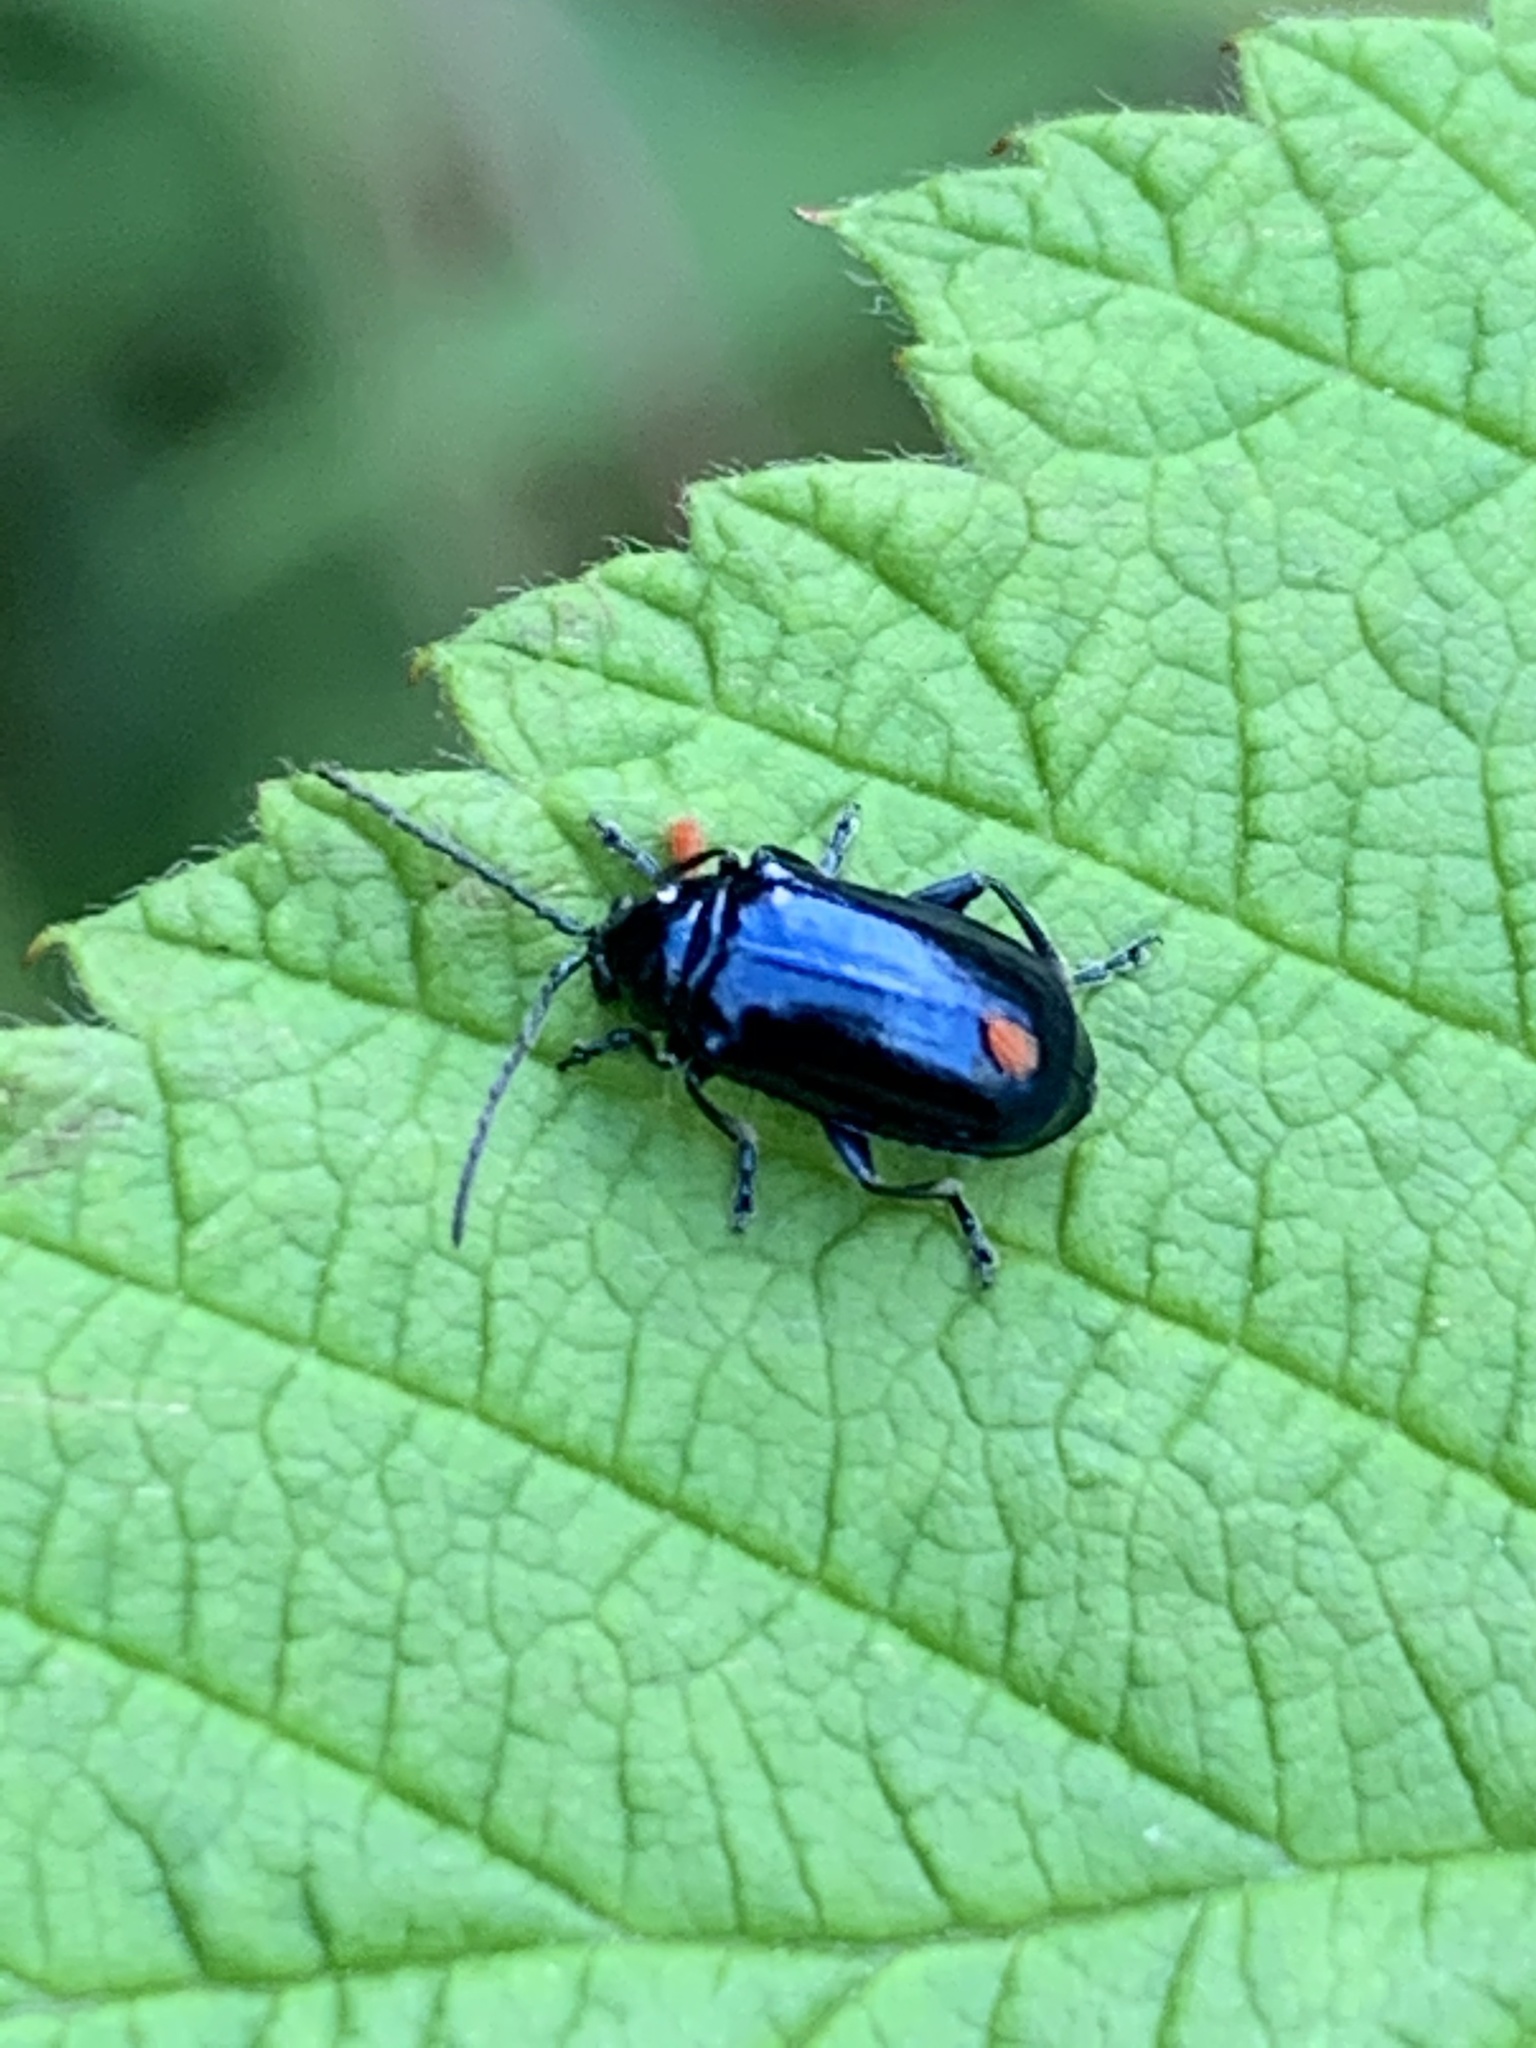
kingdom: Animalia
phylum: Arthropoda
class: Insecta
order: Coleoptera
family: Chrysomelidae
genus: Altica
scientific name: Altica ambiens
